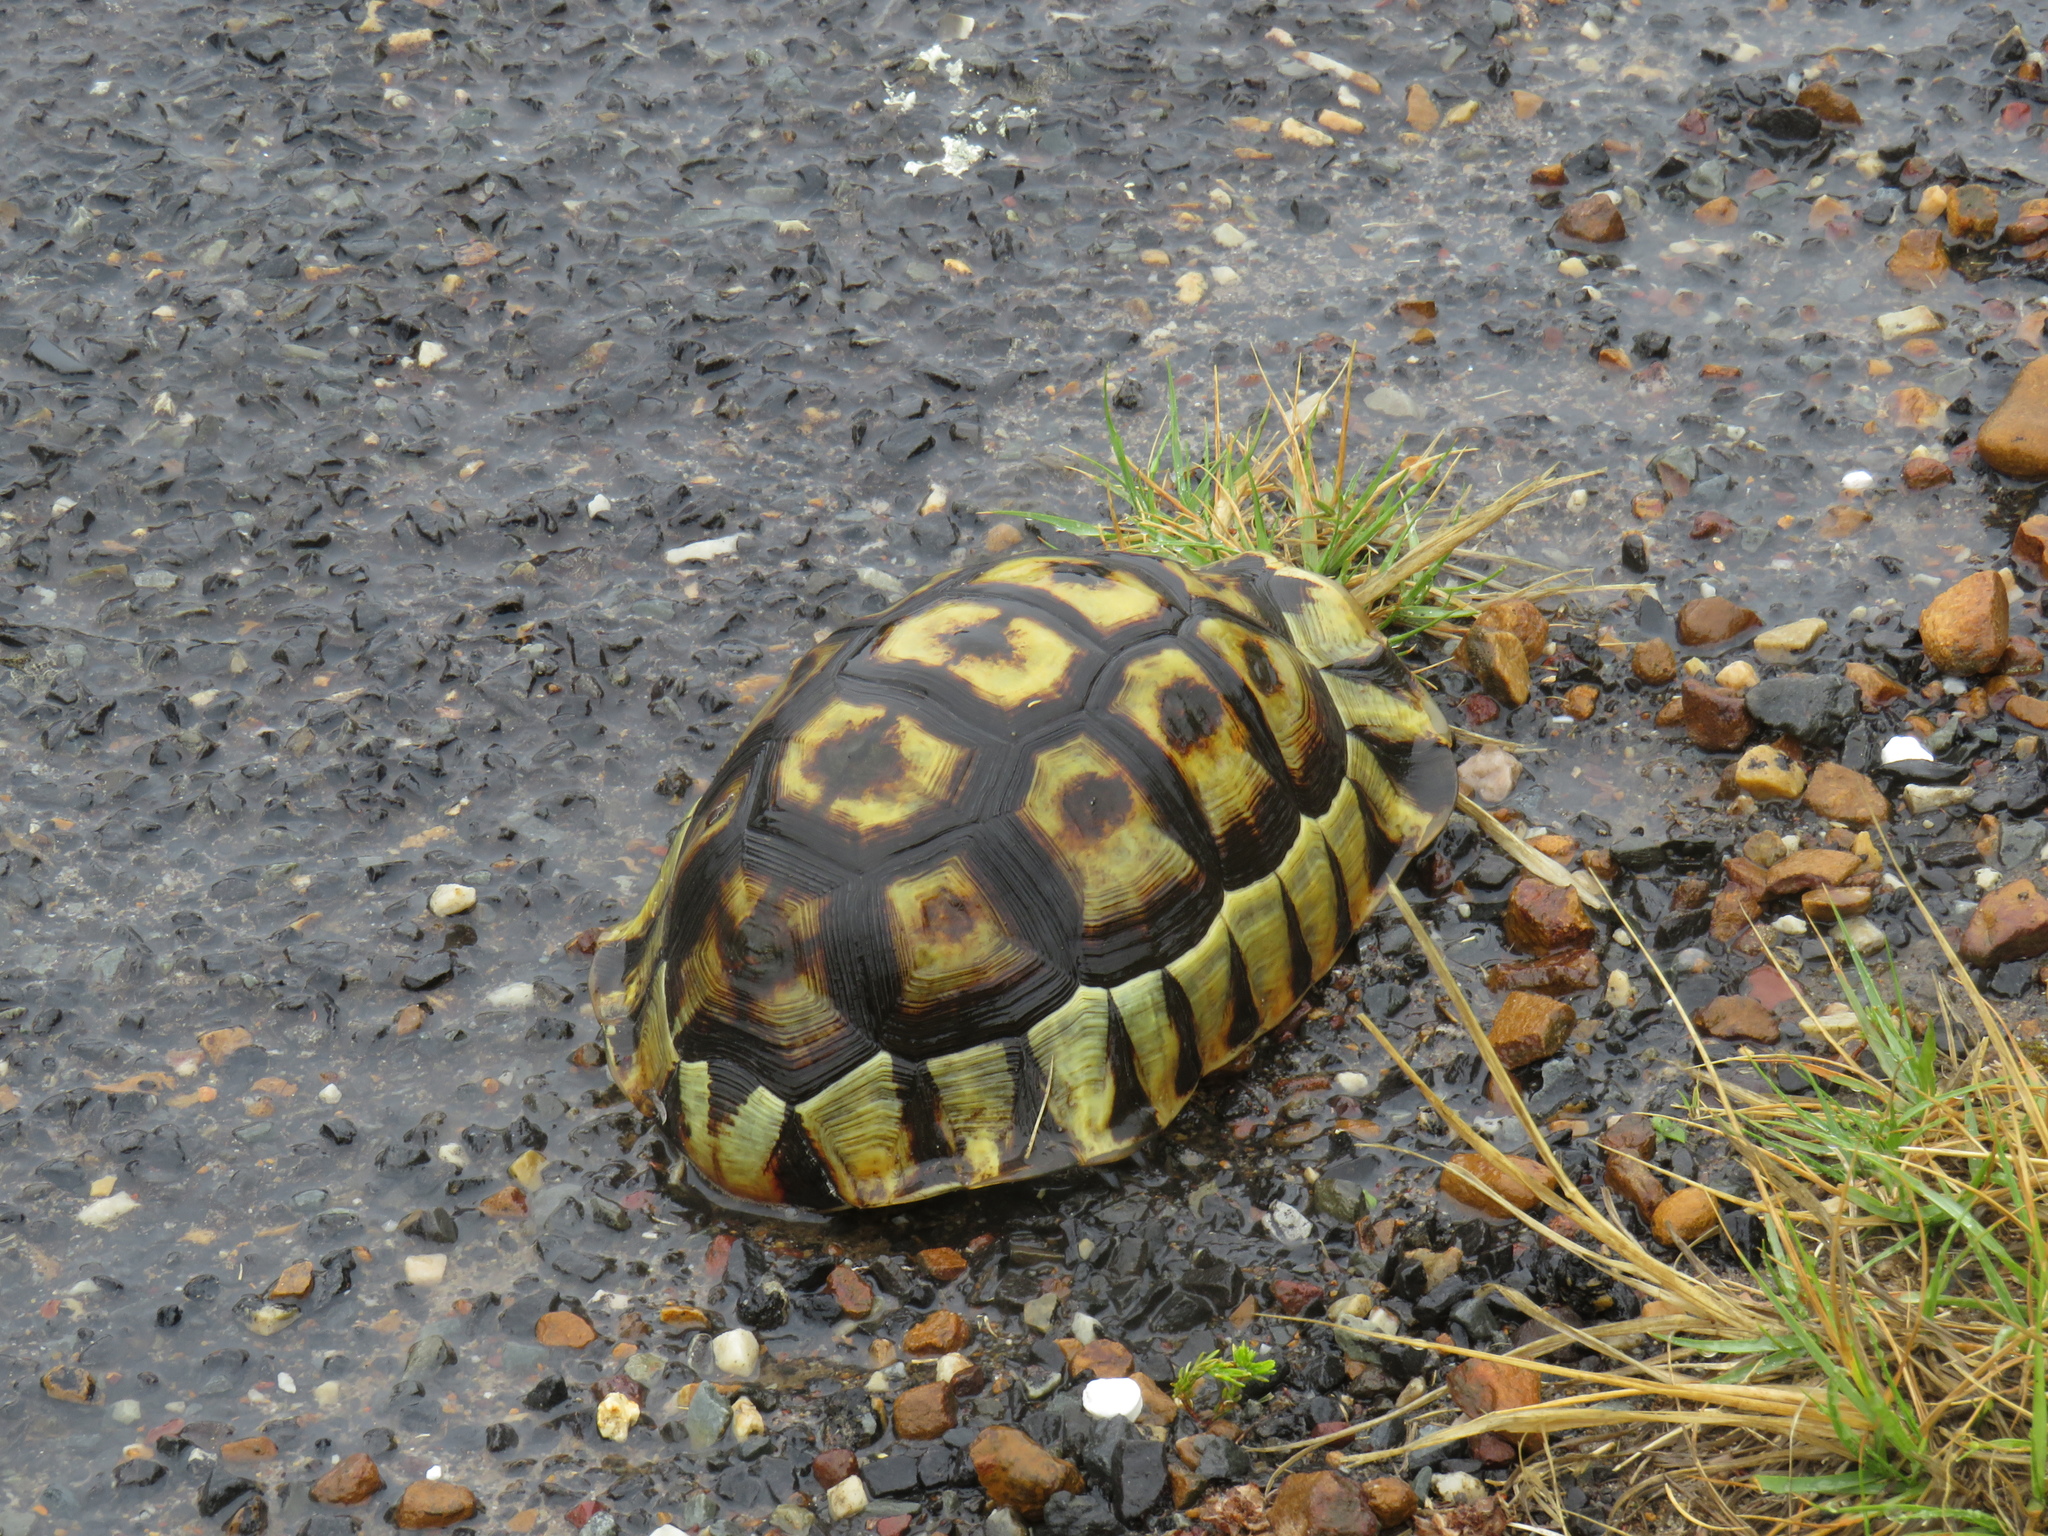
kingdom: Animalia
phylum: Chordata
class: Testudines
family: Testudinidae
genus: Chersina
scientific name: Chersina angulata
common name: South african bowsprit tortoise
